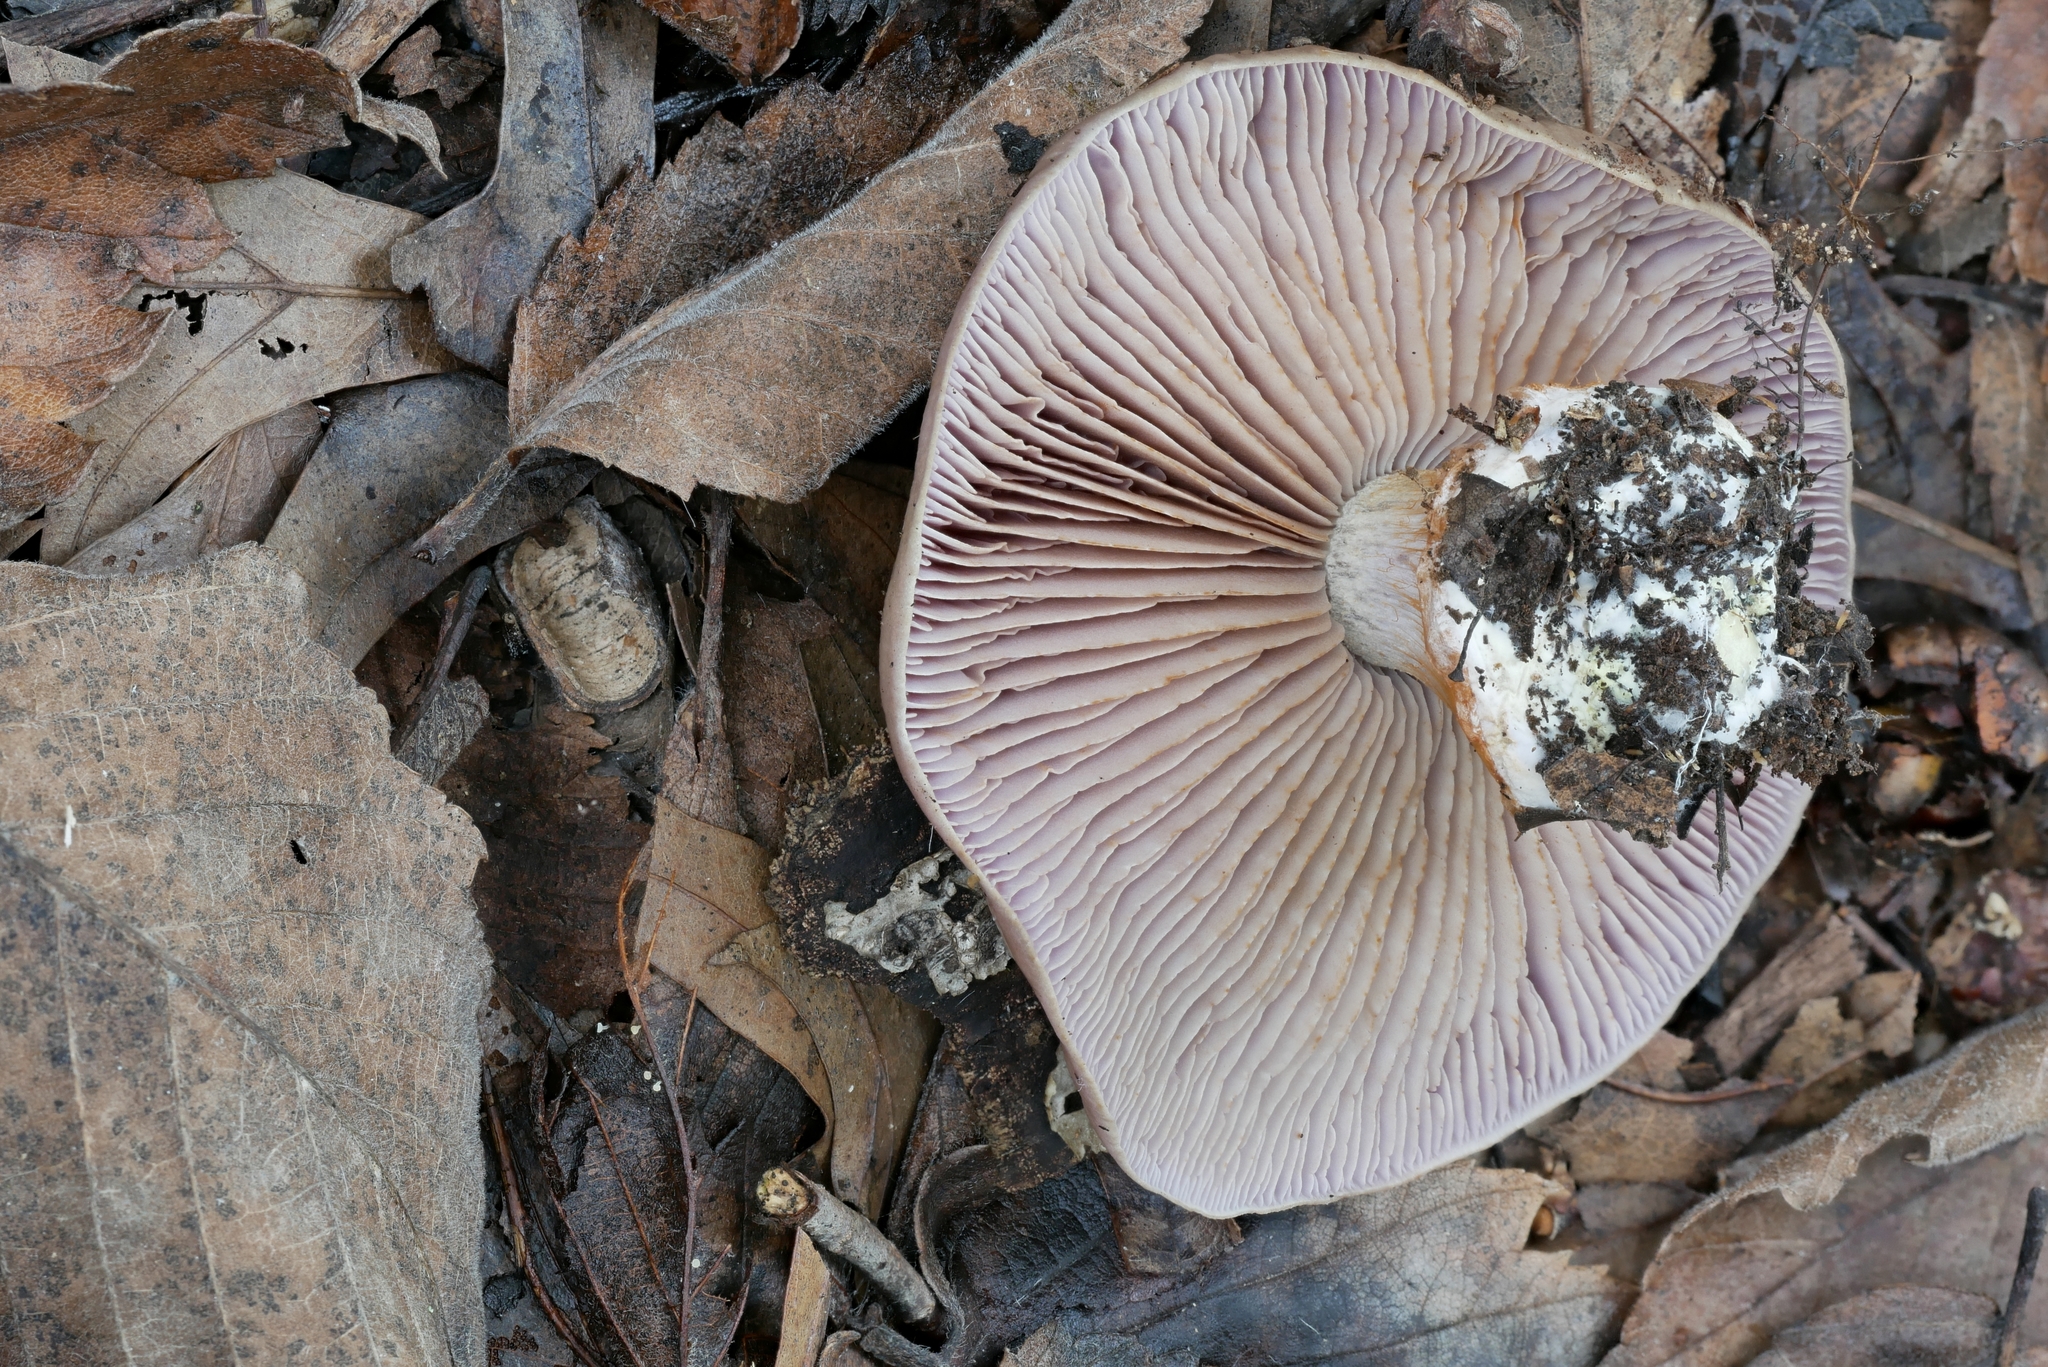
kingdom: Fungi
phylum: Basidiomycota
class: Agaricomycetes
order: Agaricales
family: Cortinariaceae
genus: Thaxterogaster
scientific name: Thaxterogaster herpeticus
